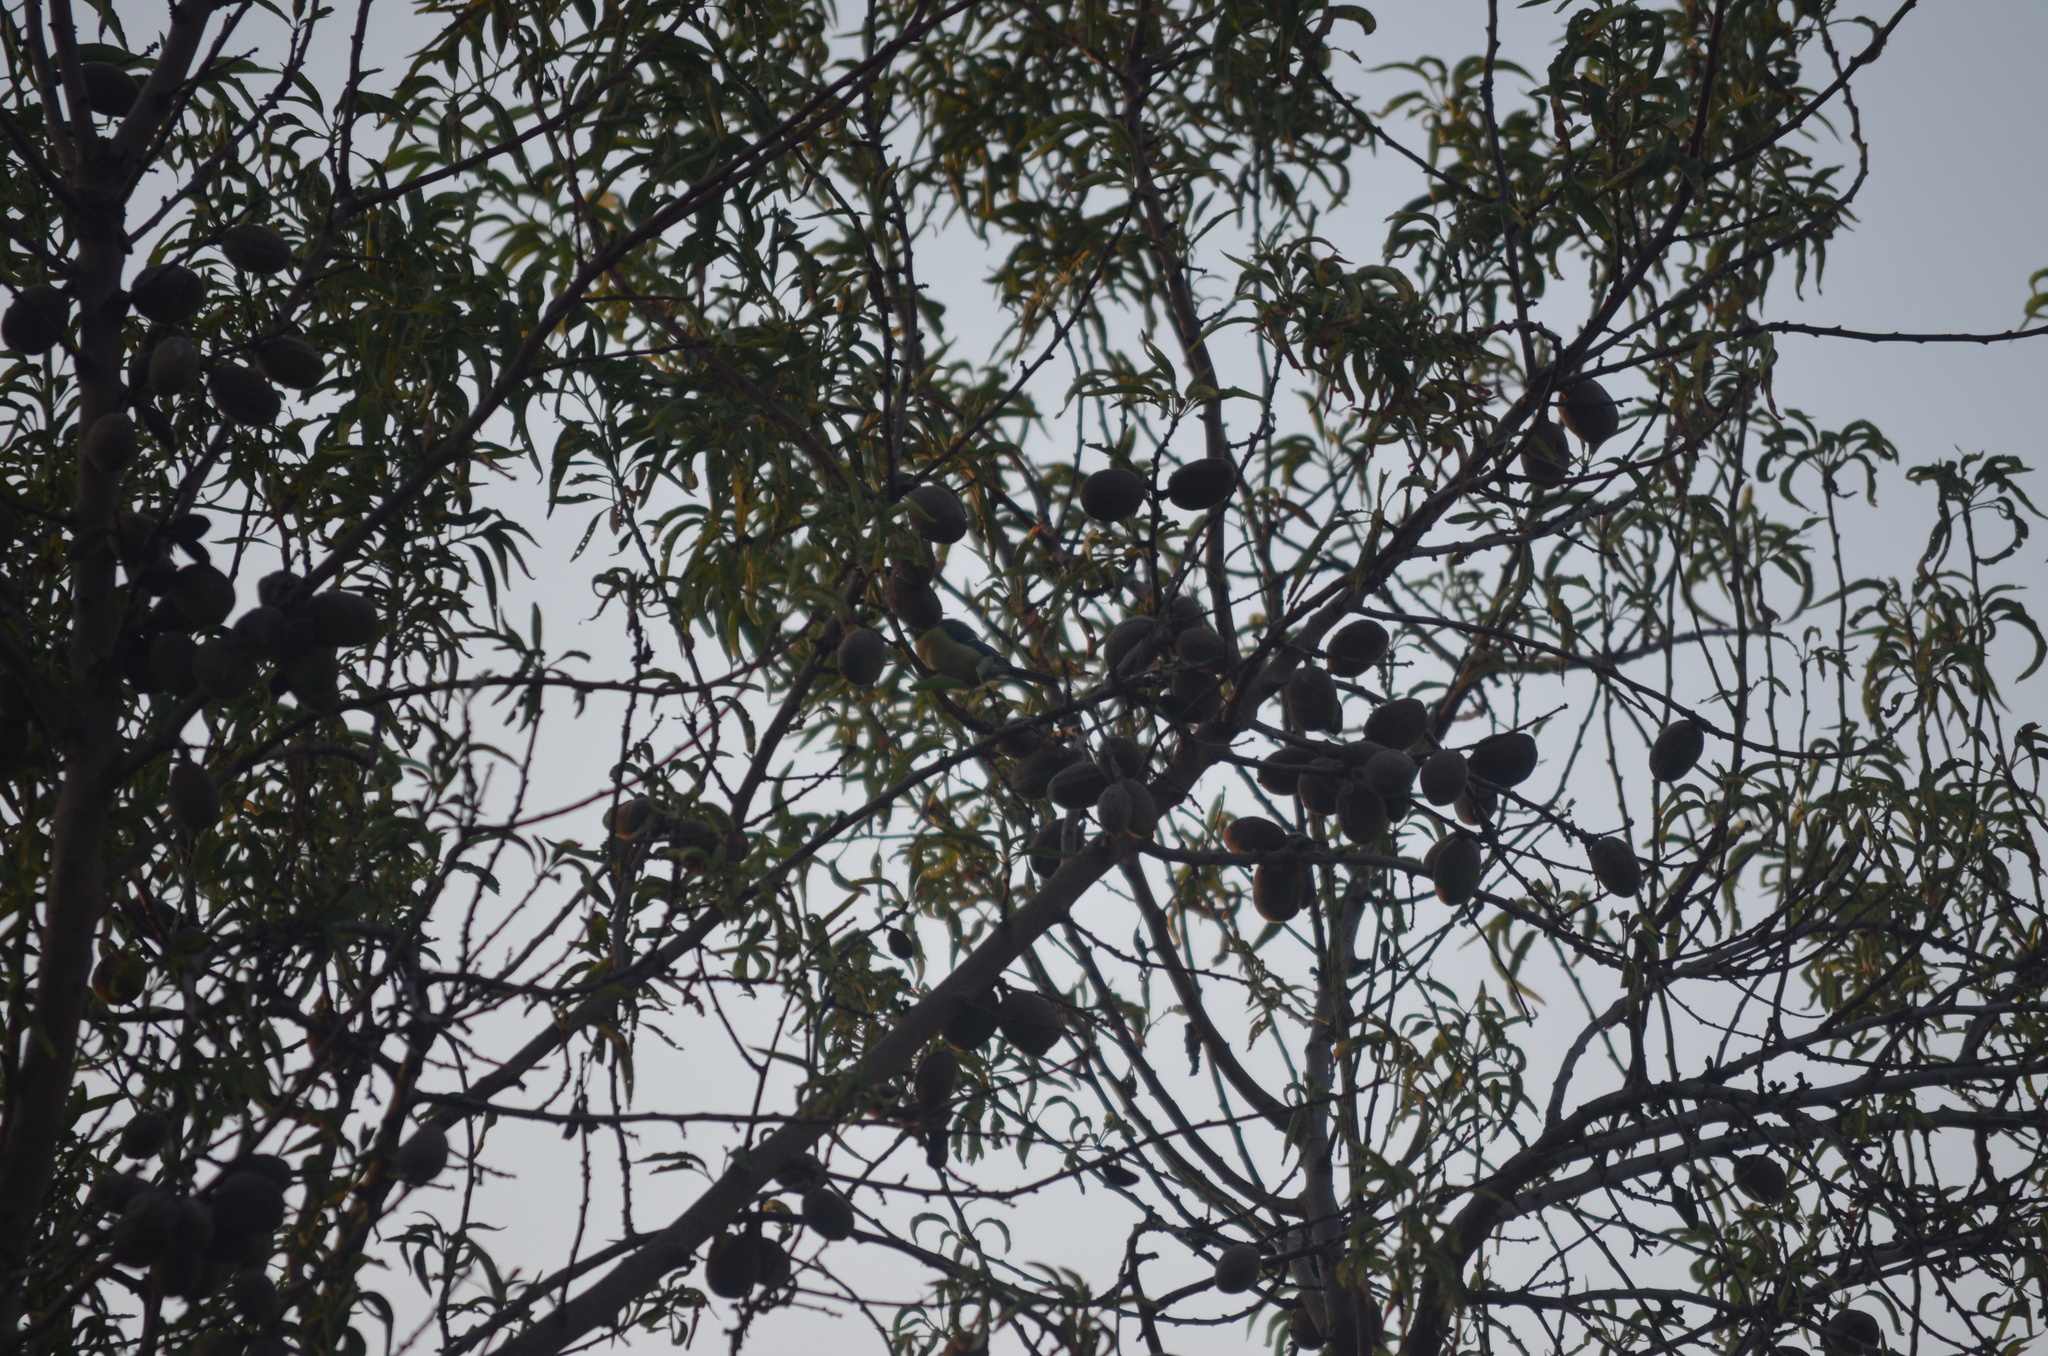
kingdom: Animalia
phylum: Chordata
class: Aves
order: Passeriformes
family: Paridae
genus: Cyanistes
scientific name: Cyanistes caeruleus
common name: Eurasian blue tit
